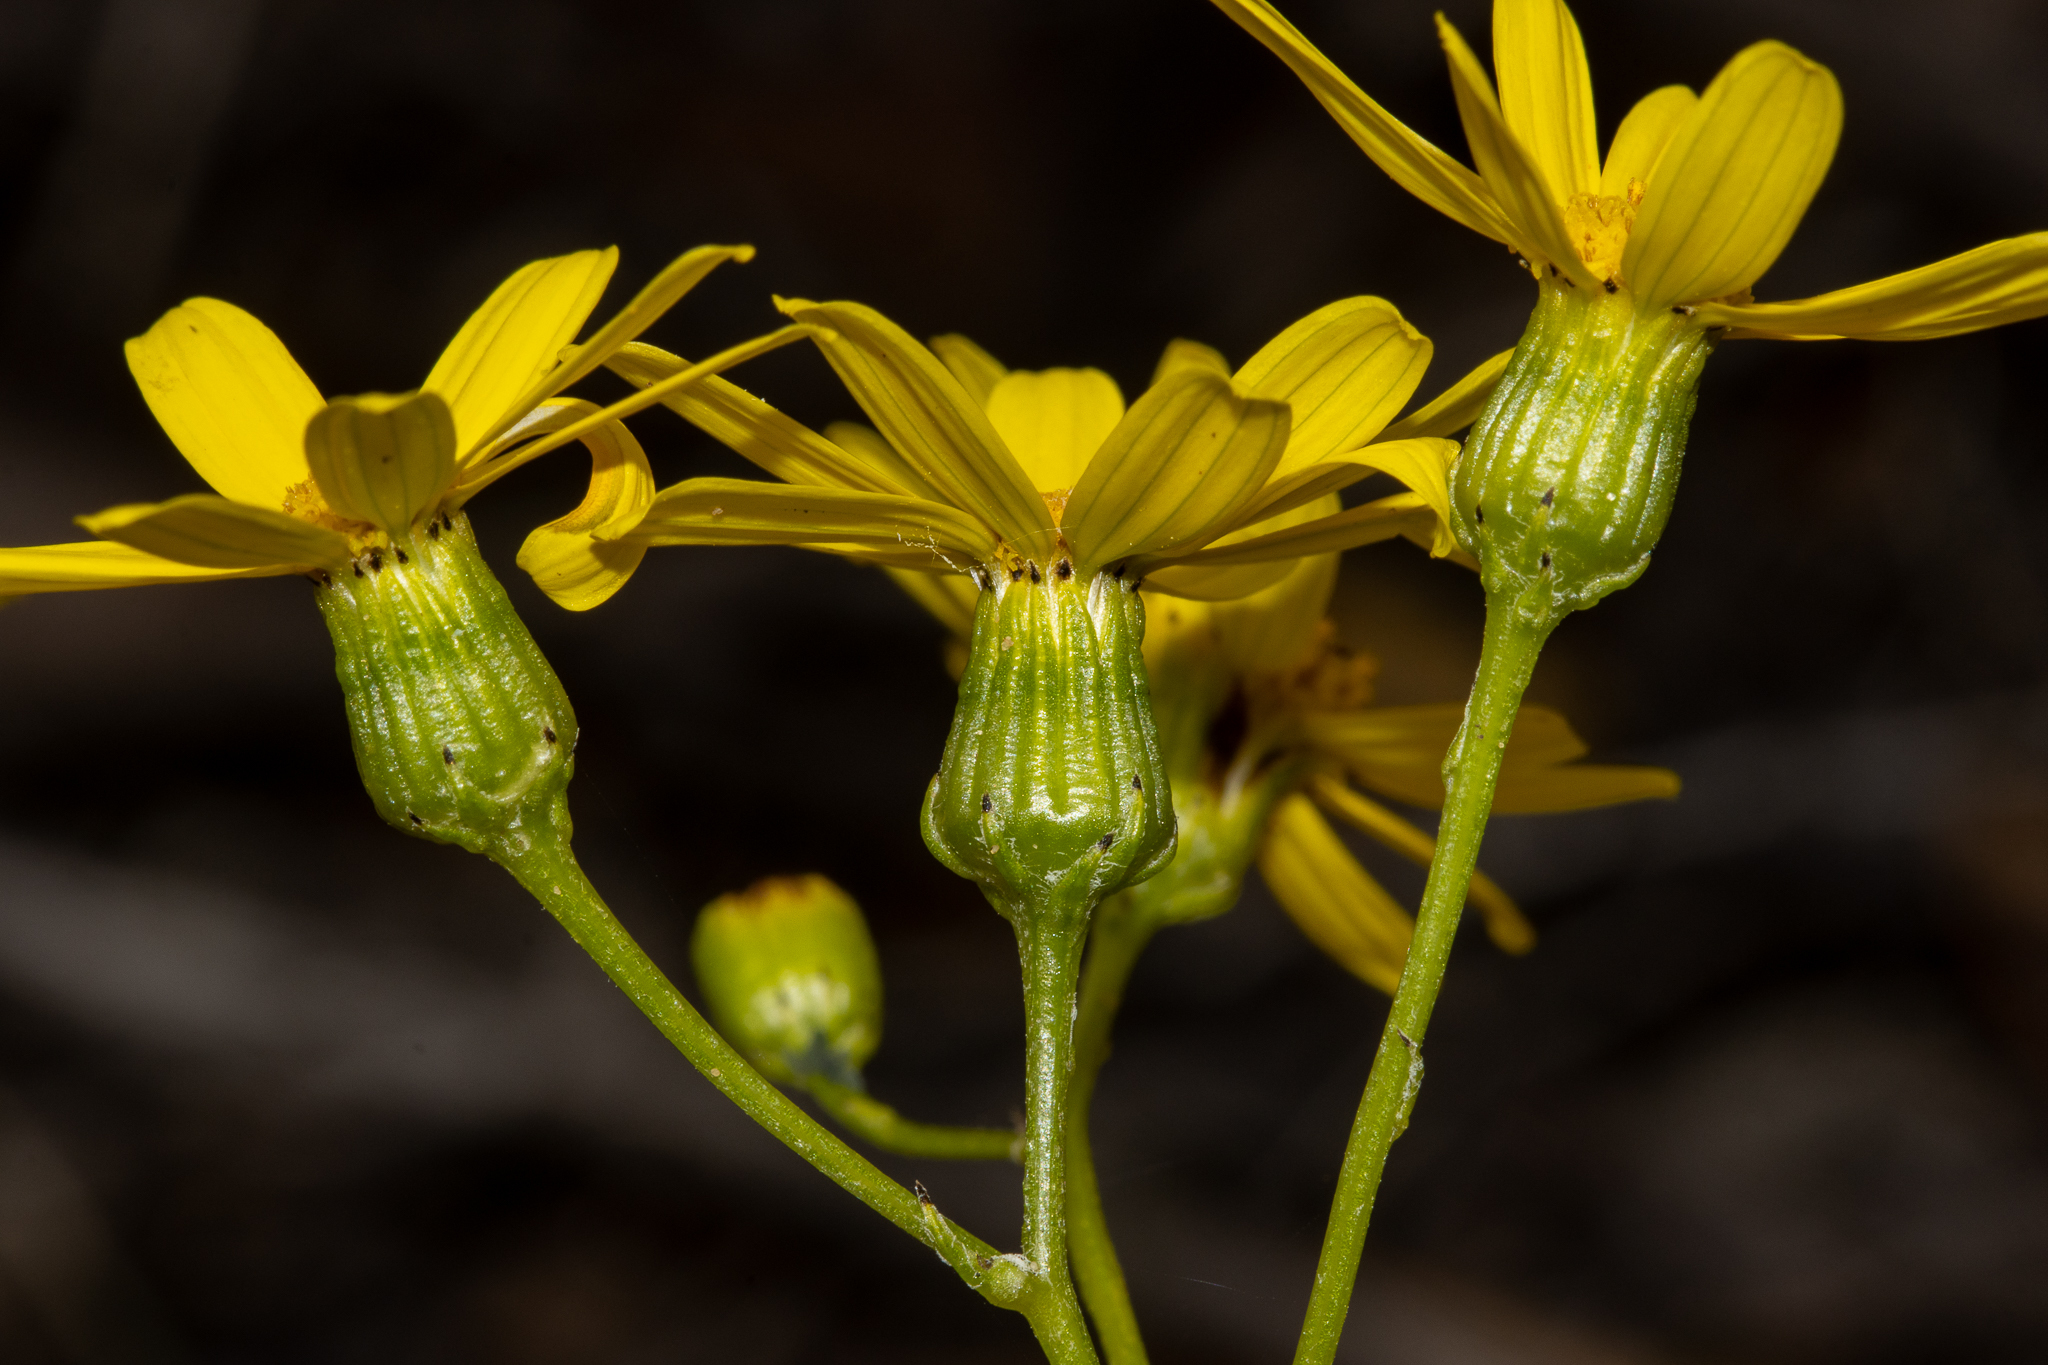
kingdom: Plantae
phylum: Tracheophyta
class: Magnoliopsida
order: Asterales
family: Asteraceae
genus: Senecio
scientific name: Senecio spanomerus
